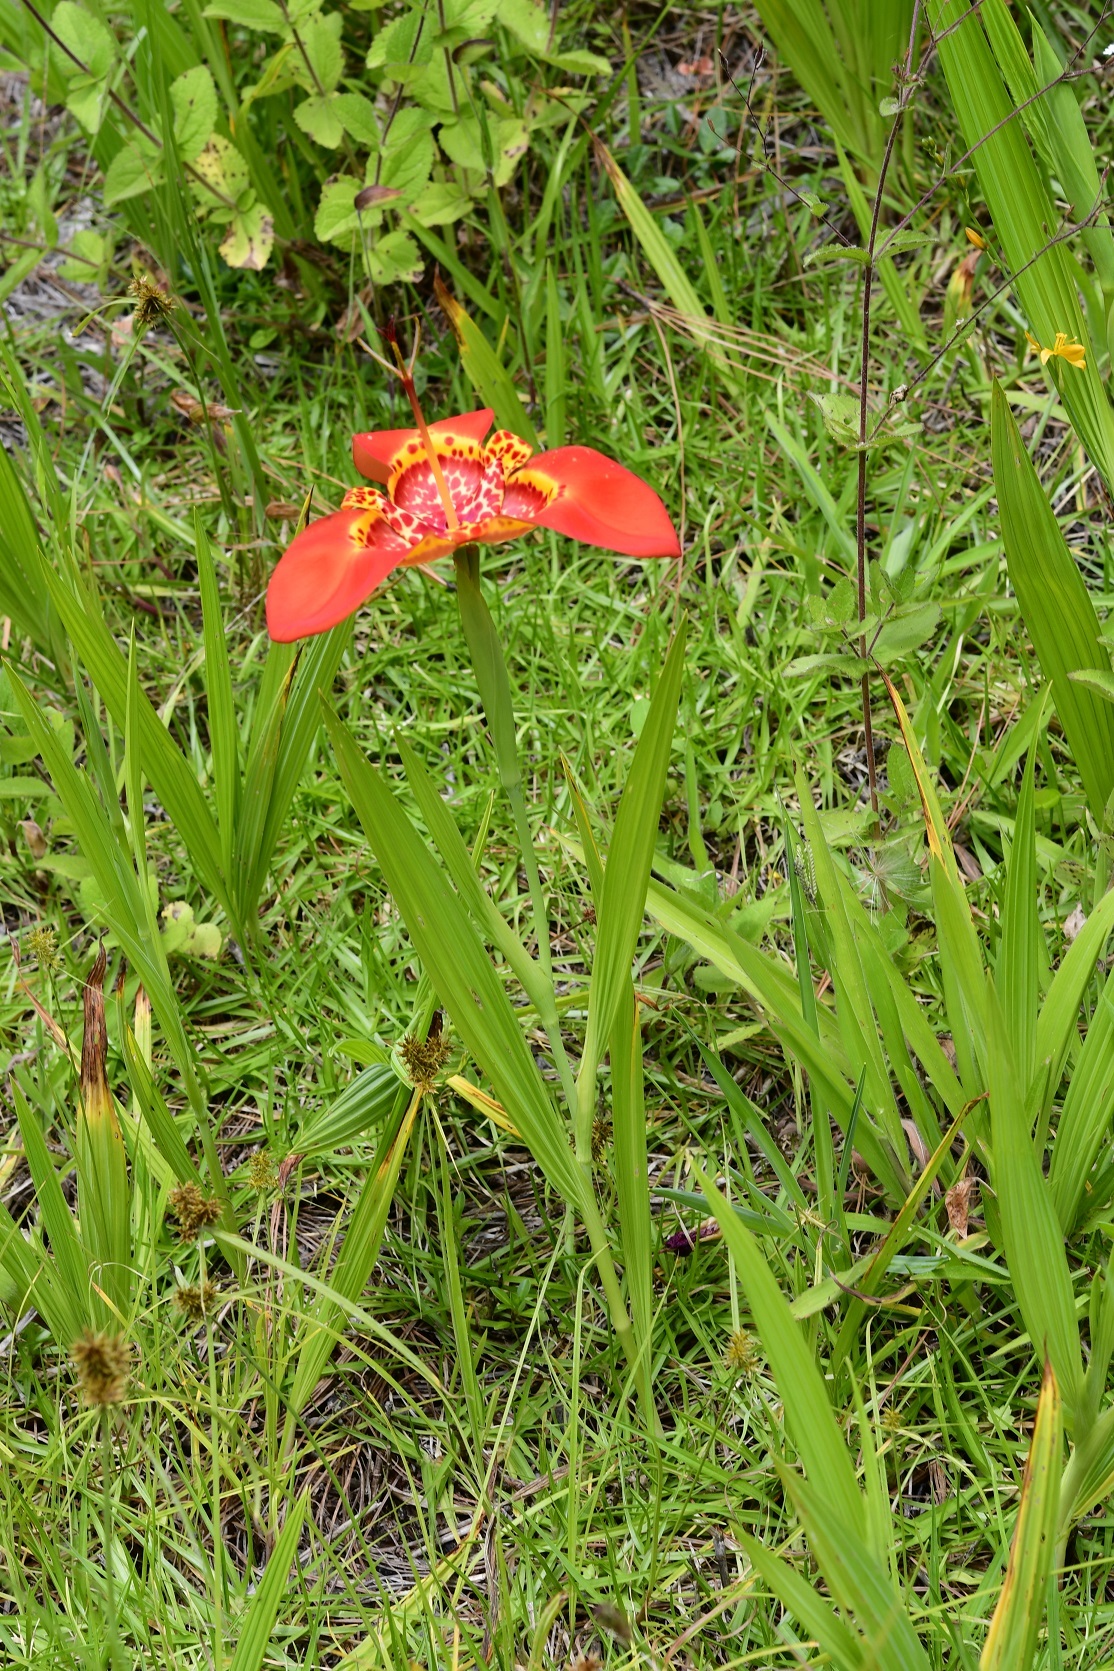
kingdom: Plantae
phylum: Tracheophyta
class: Liliopsida
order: Asparagales
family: Iridaceae
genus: Tigridia
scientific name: Tigridia pavonia
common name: Peacock-flower
